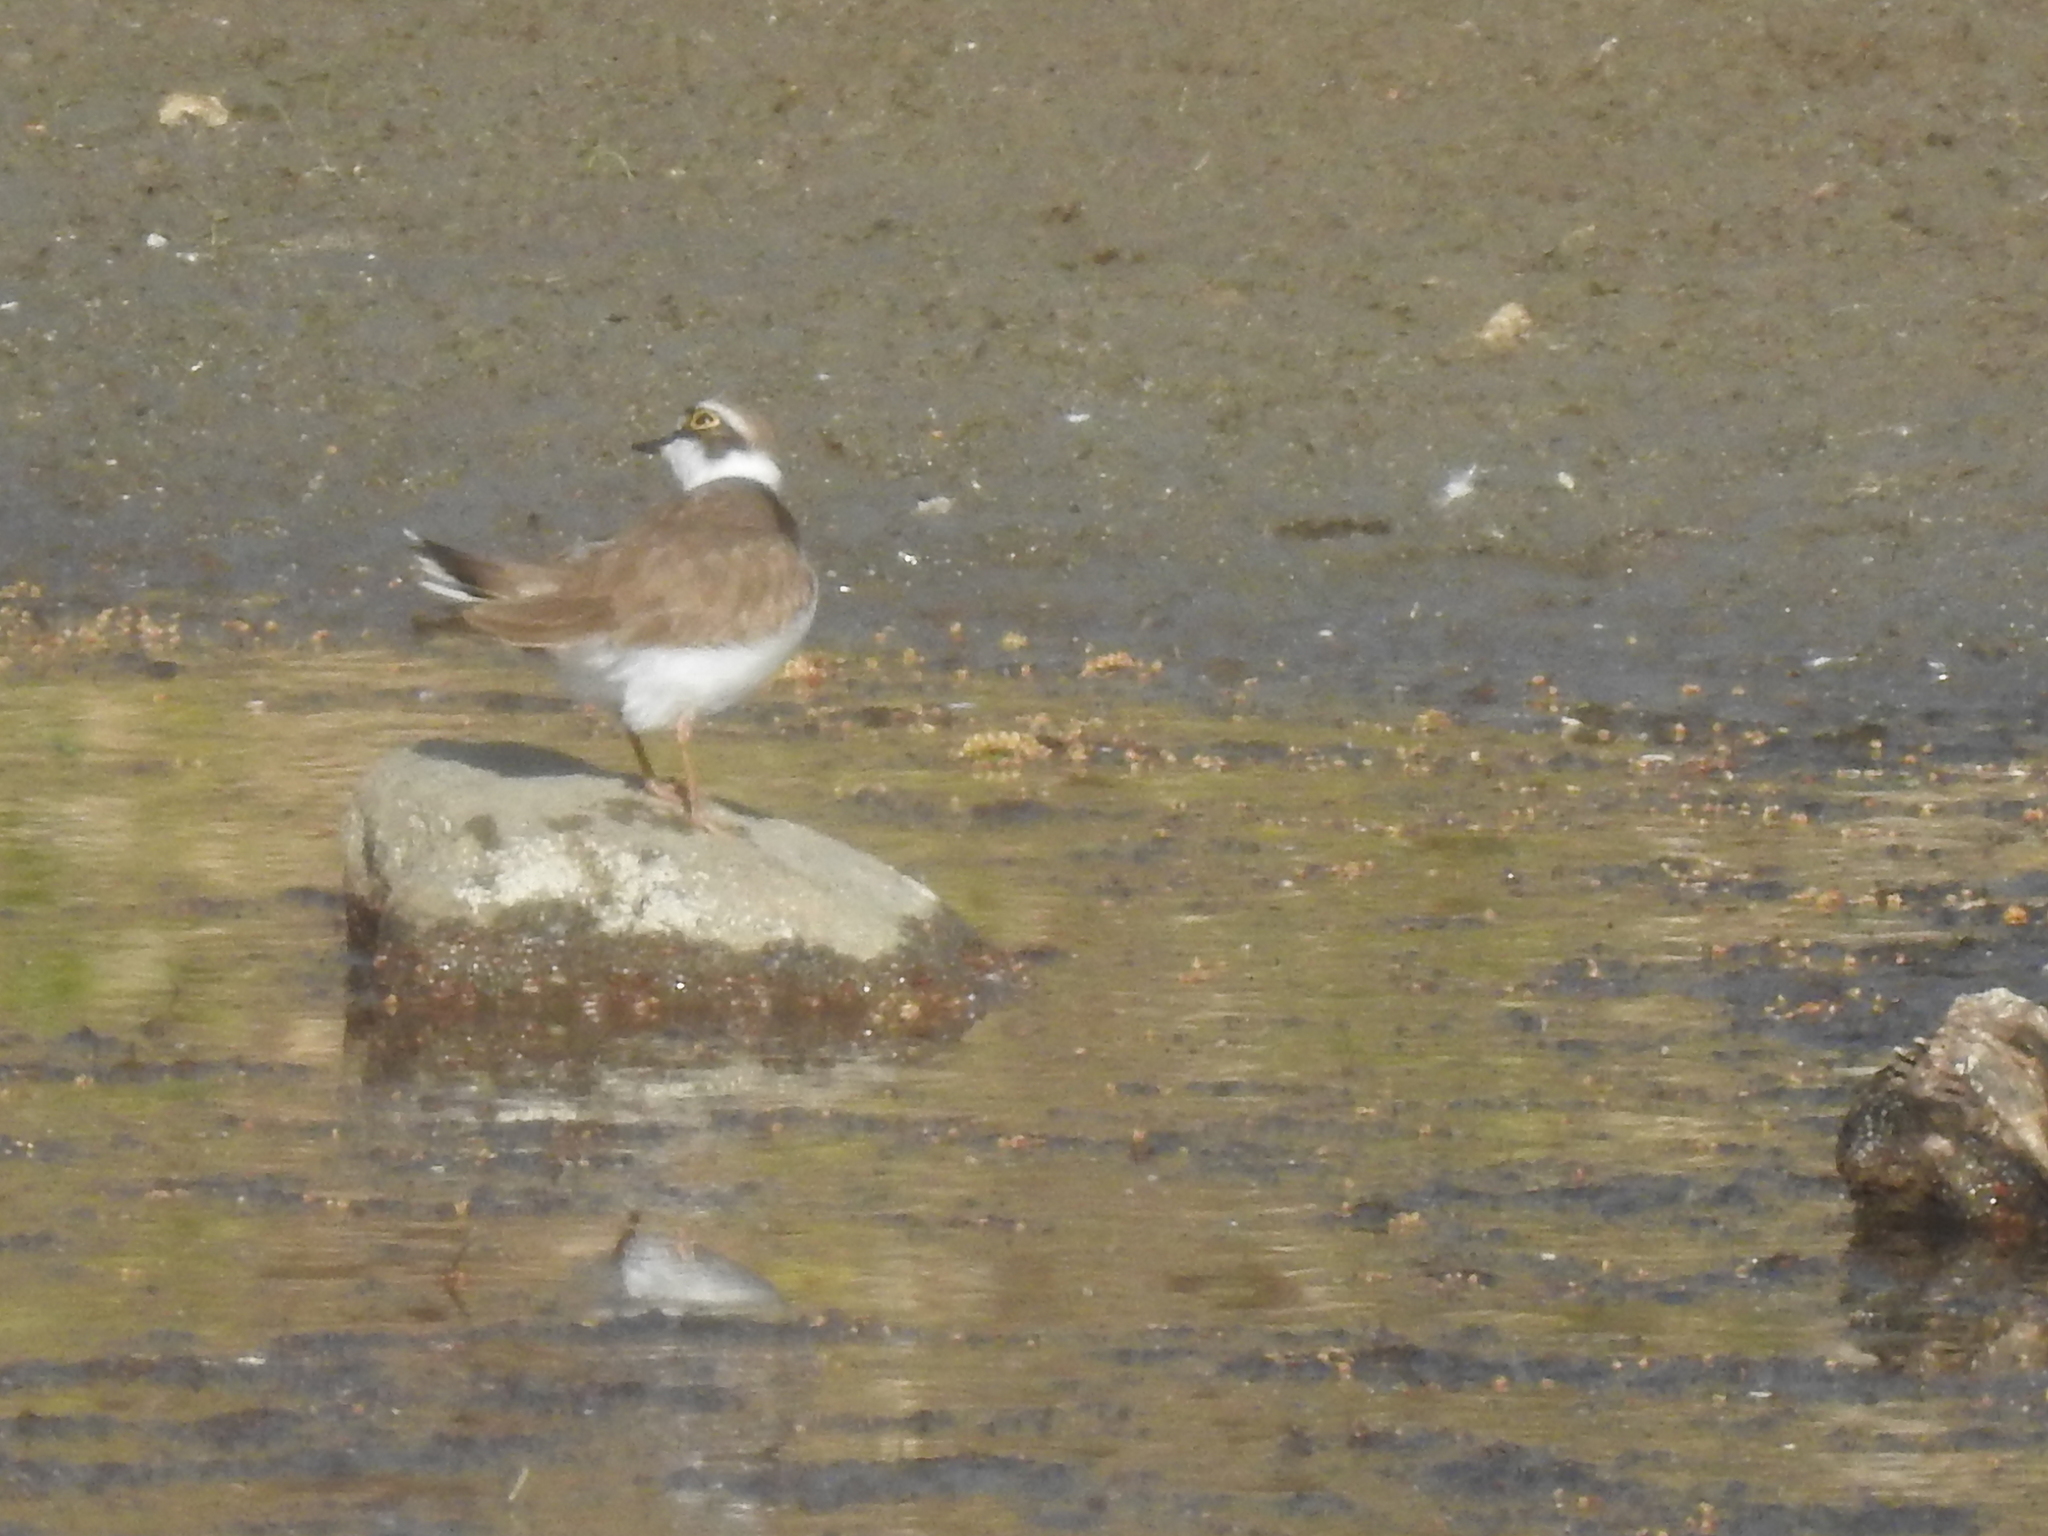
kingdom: Animalia
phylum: Chordata
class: Aves
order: Charadriiformes
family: Charadriidae
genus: Charadrius
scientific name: Charadrius dubius
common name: Little ringed plover
